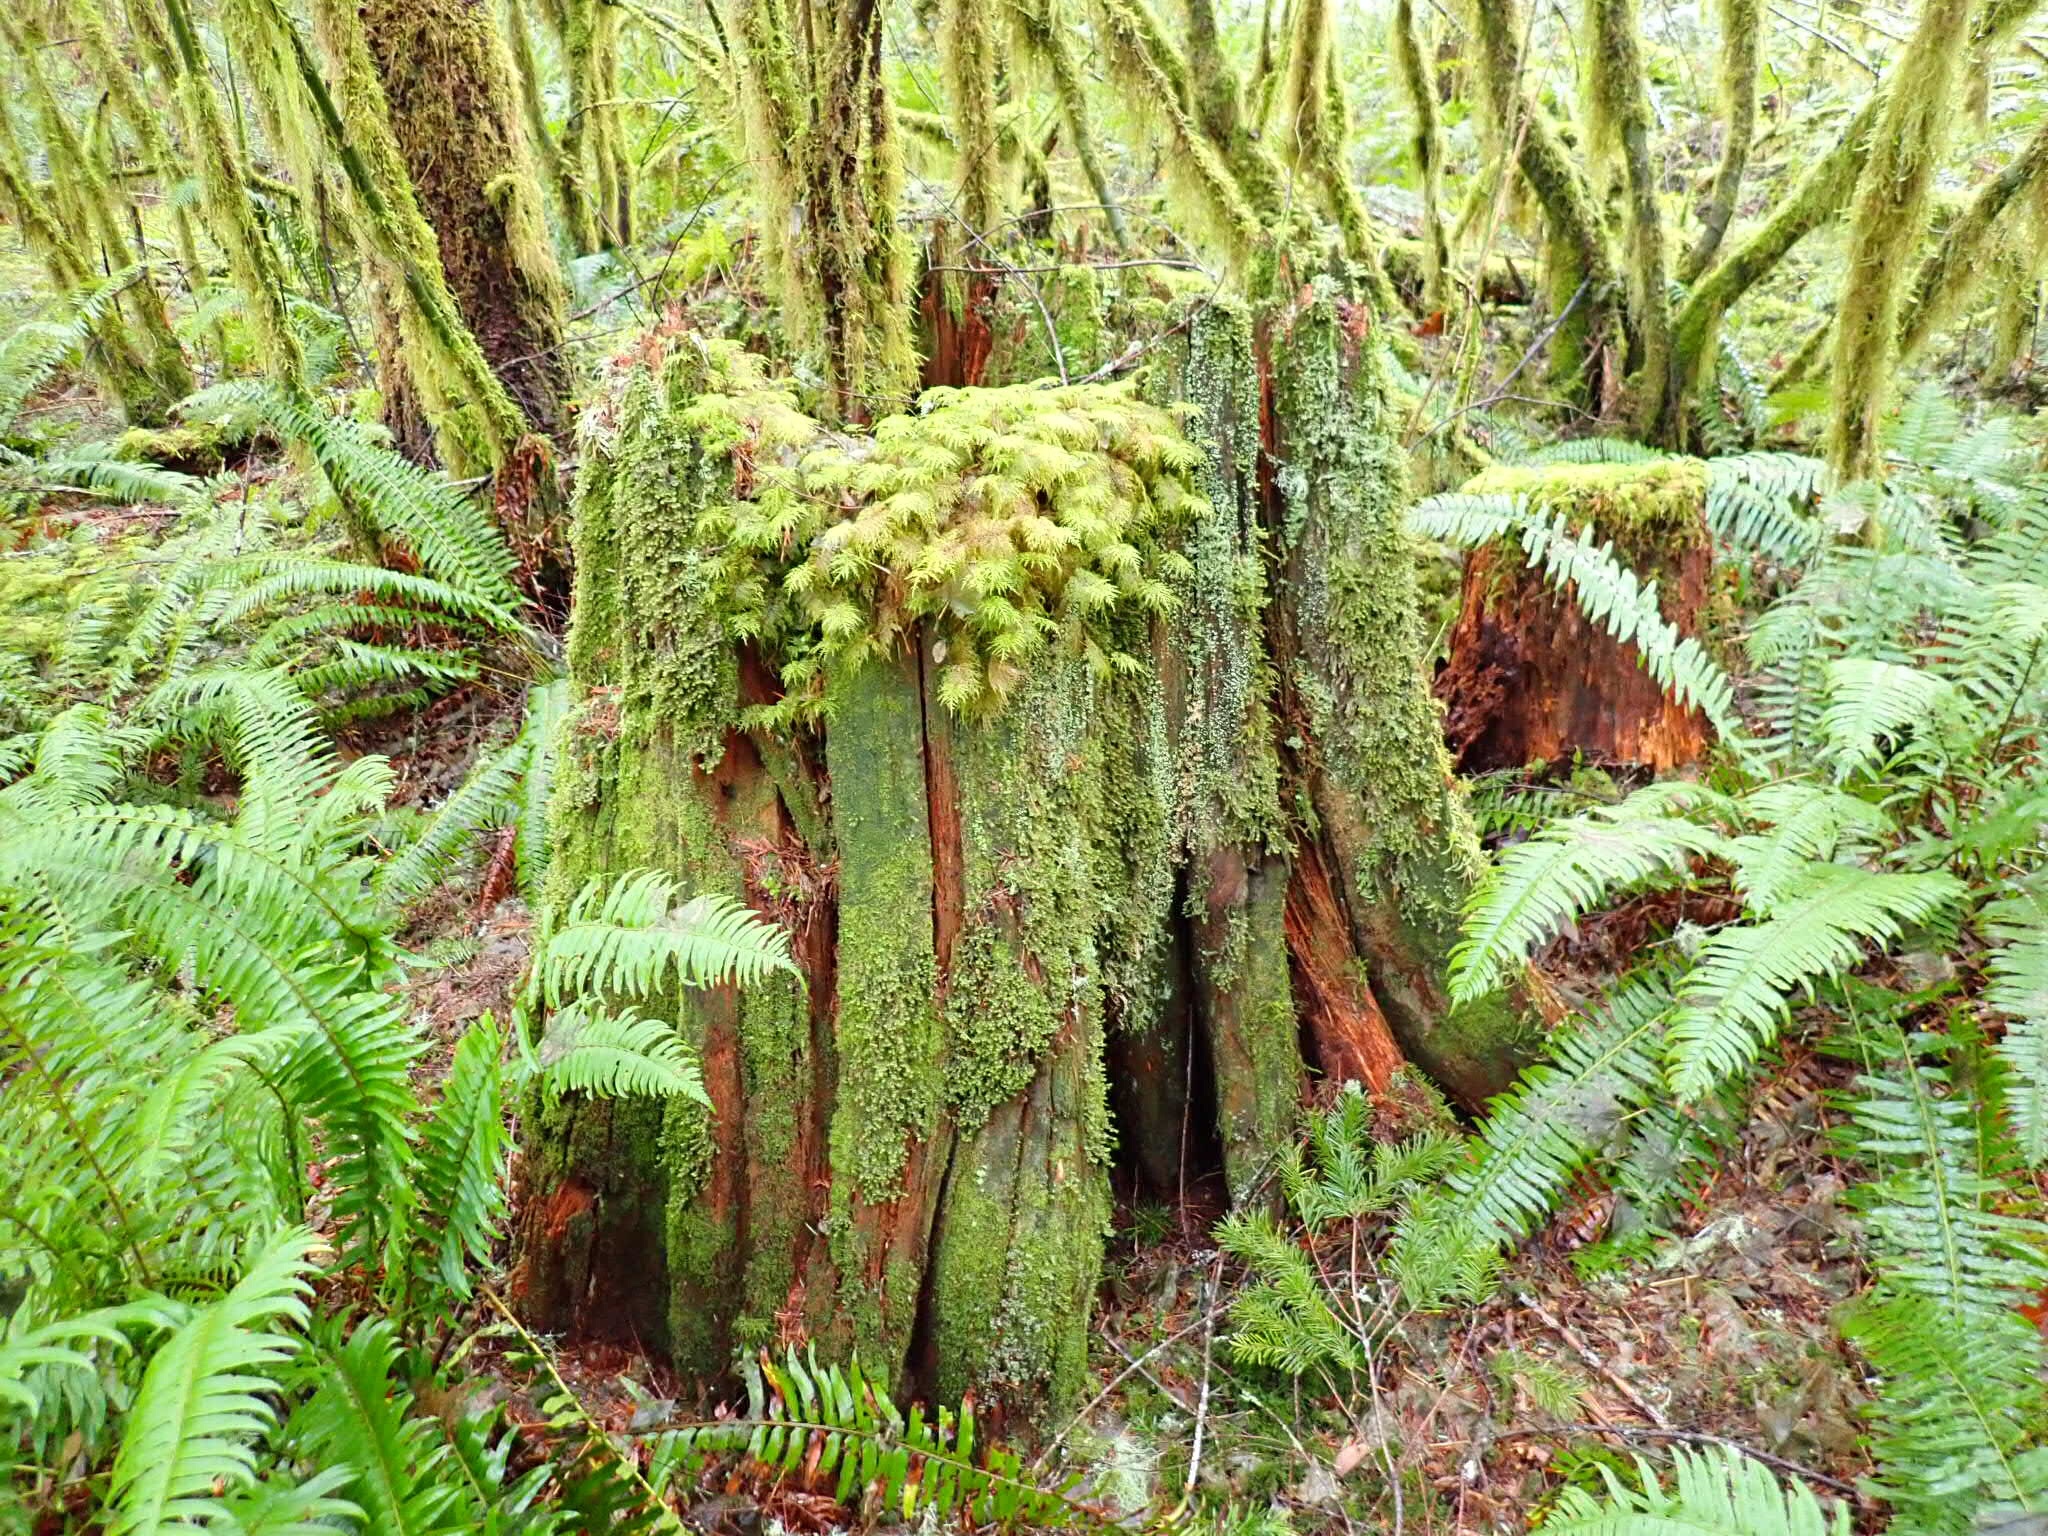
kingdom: Plantae
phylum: Bryophyta
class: Bryopsida
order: Hypnales
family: Hylocomiaceae
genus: Hylocomium
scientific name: Hylocomium splendens
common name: Stairstep moss
